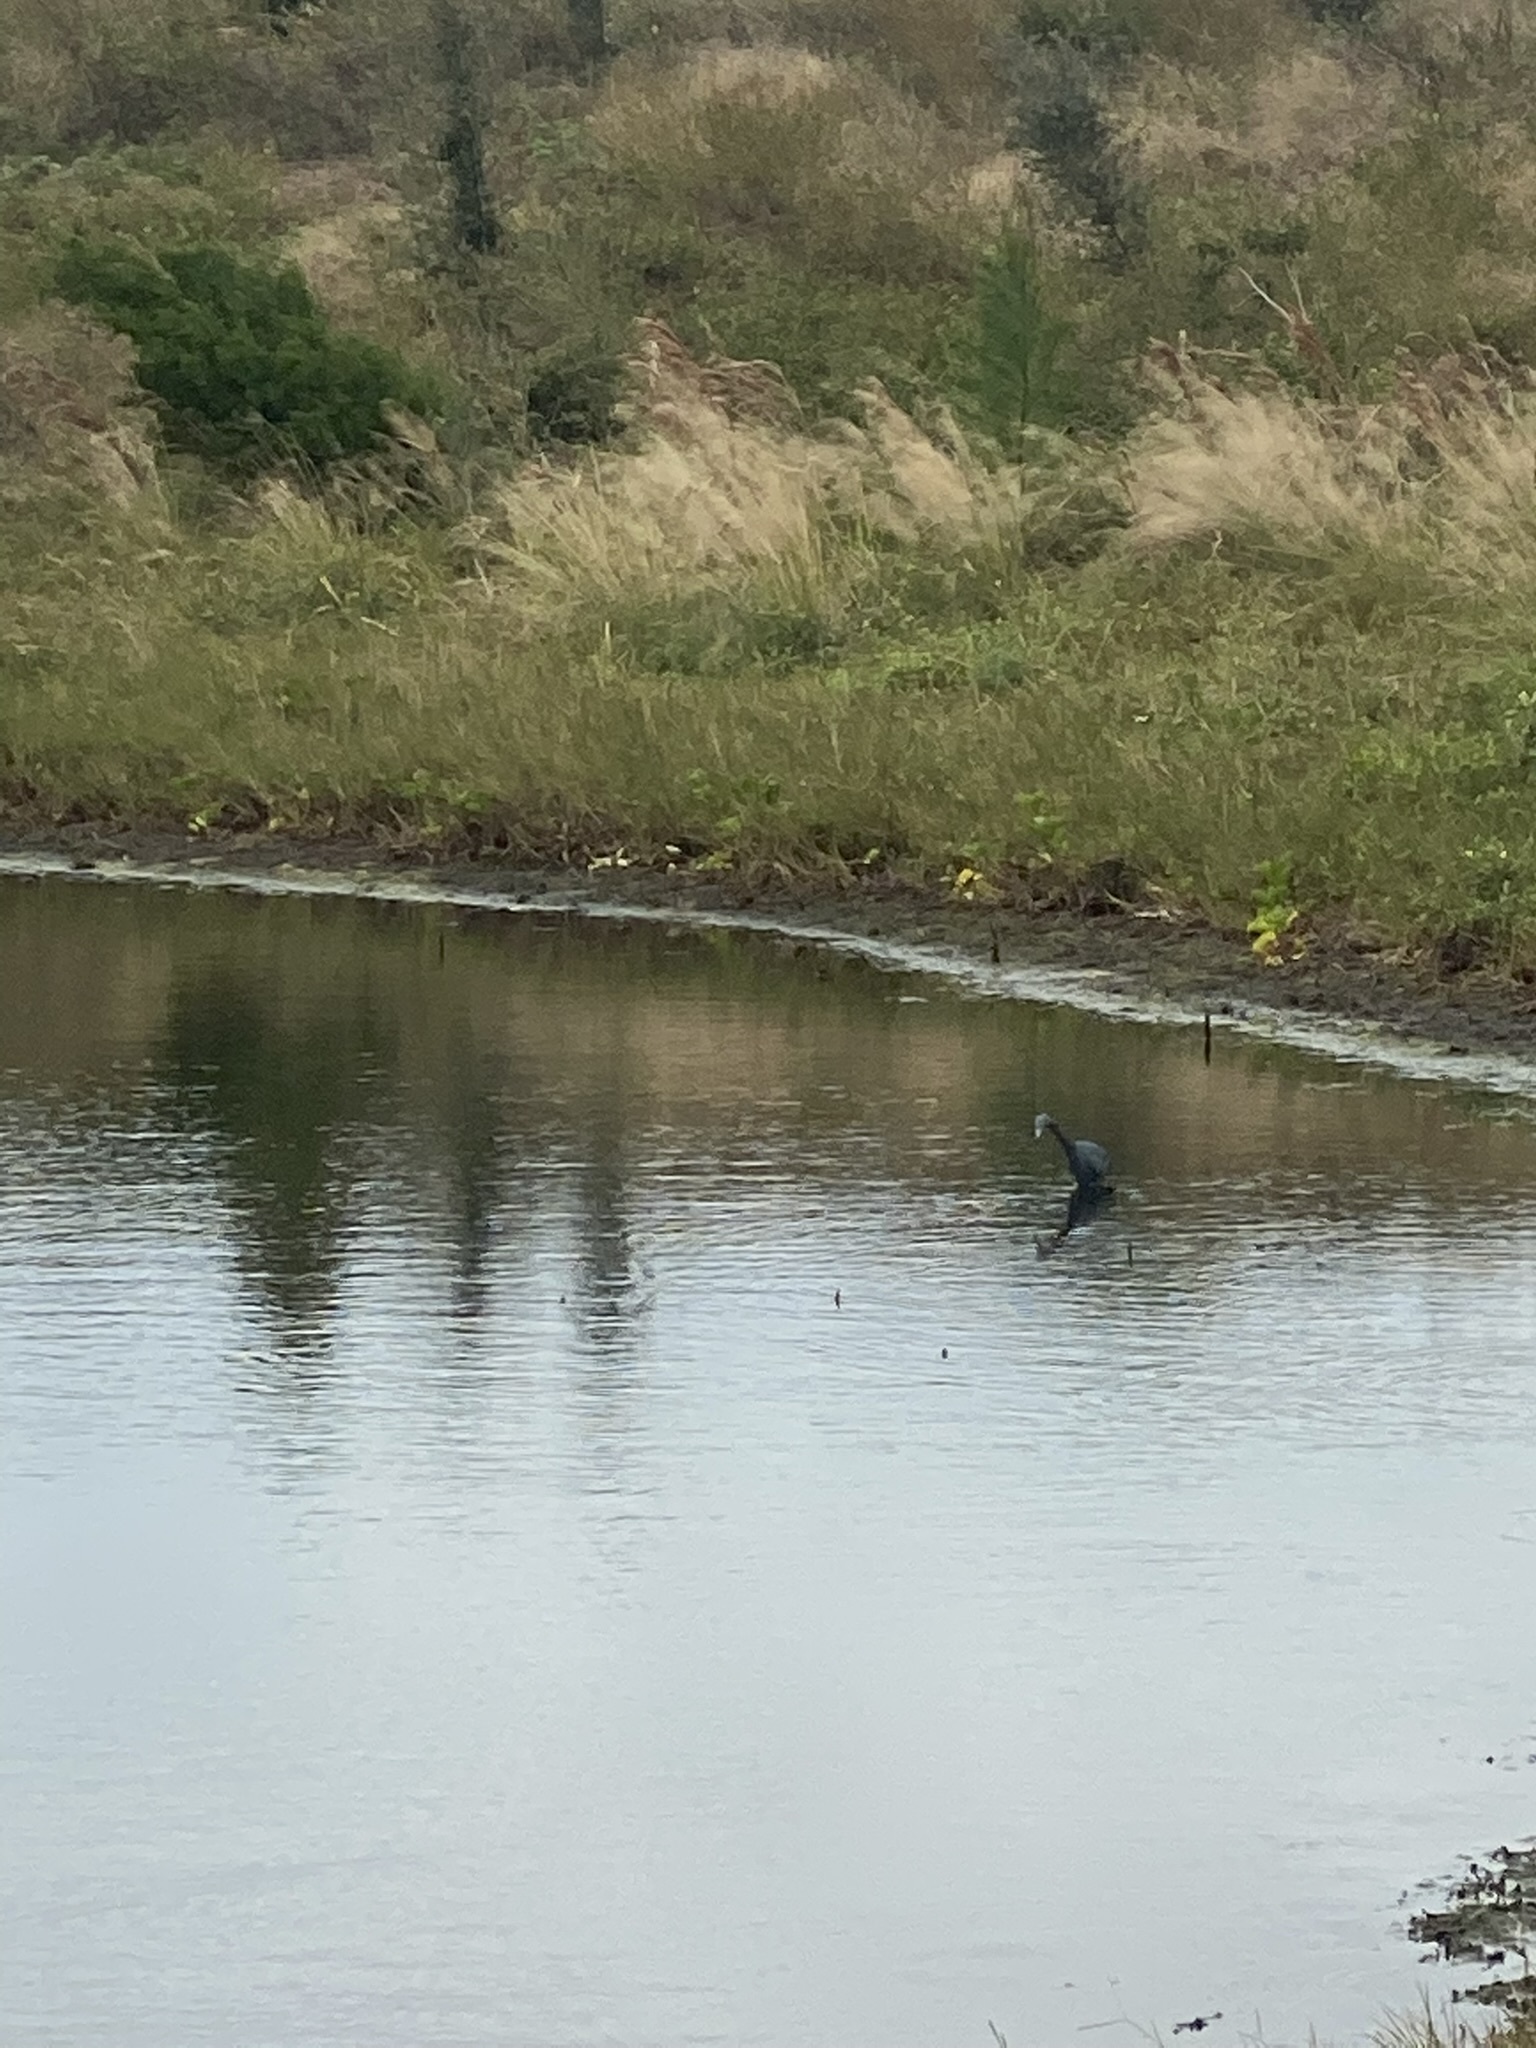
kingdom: Animalia
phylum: Chordata
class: Aves
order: Pelecaniformes
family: Ardeidae
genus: Egretta
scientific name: Egretta caerulea
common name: Little blue heron
